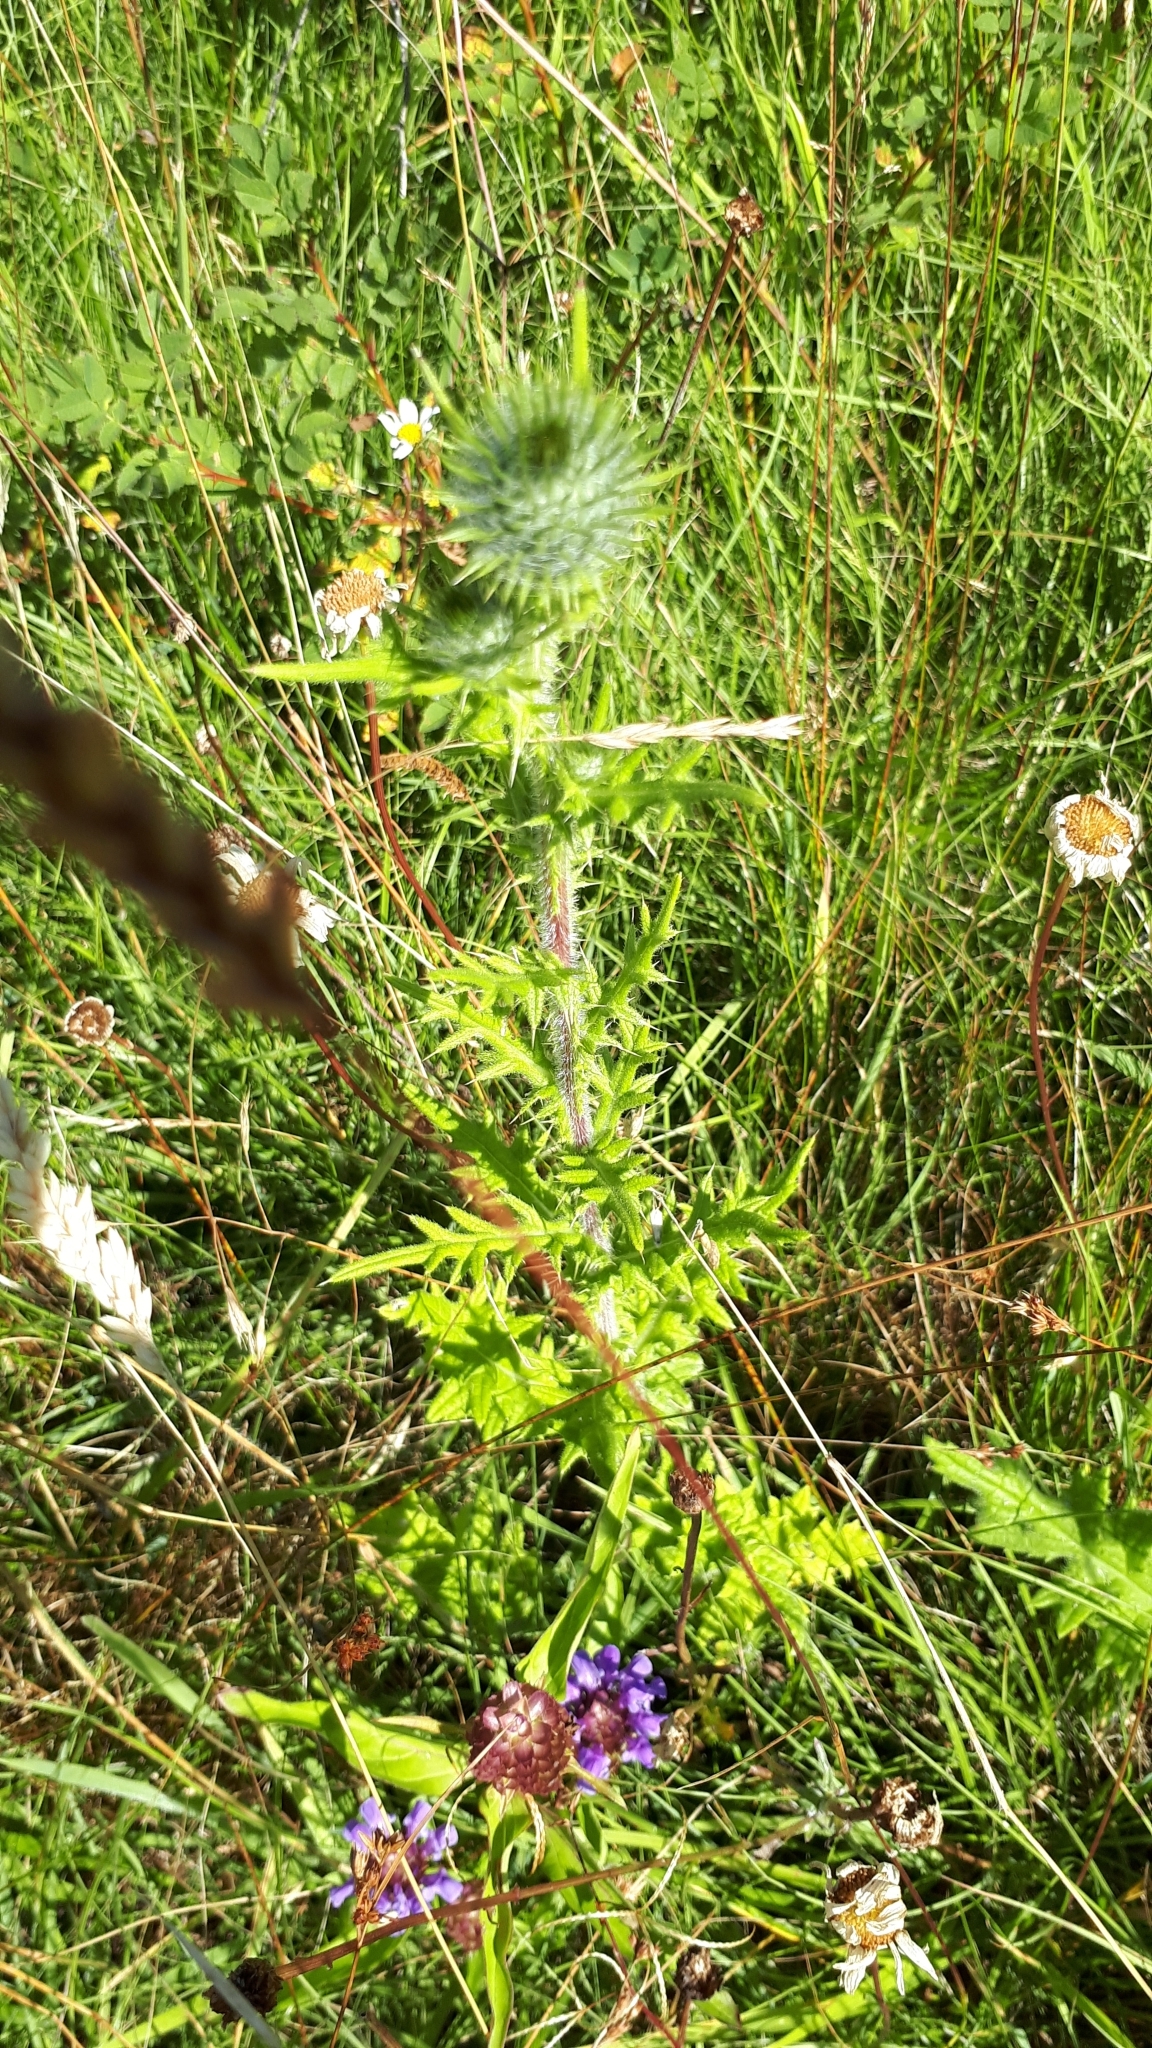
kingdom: Plantae
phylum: Tracheophyta
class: Magnoliopsida
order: Asterales
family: Asteraceae
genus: Cirsium
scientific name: Cirsium vulgare
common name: Bull thistle
